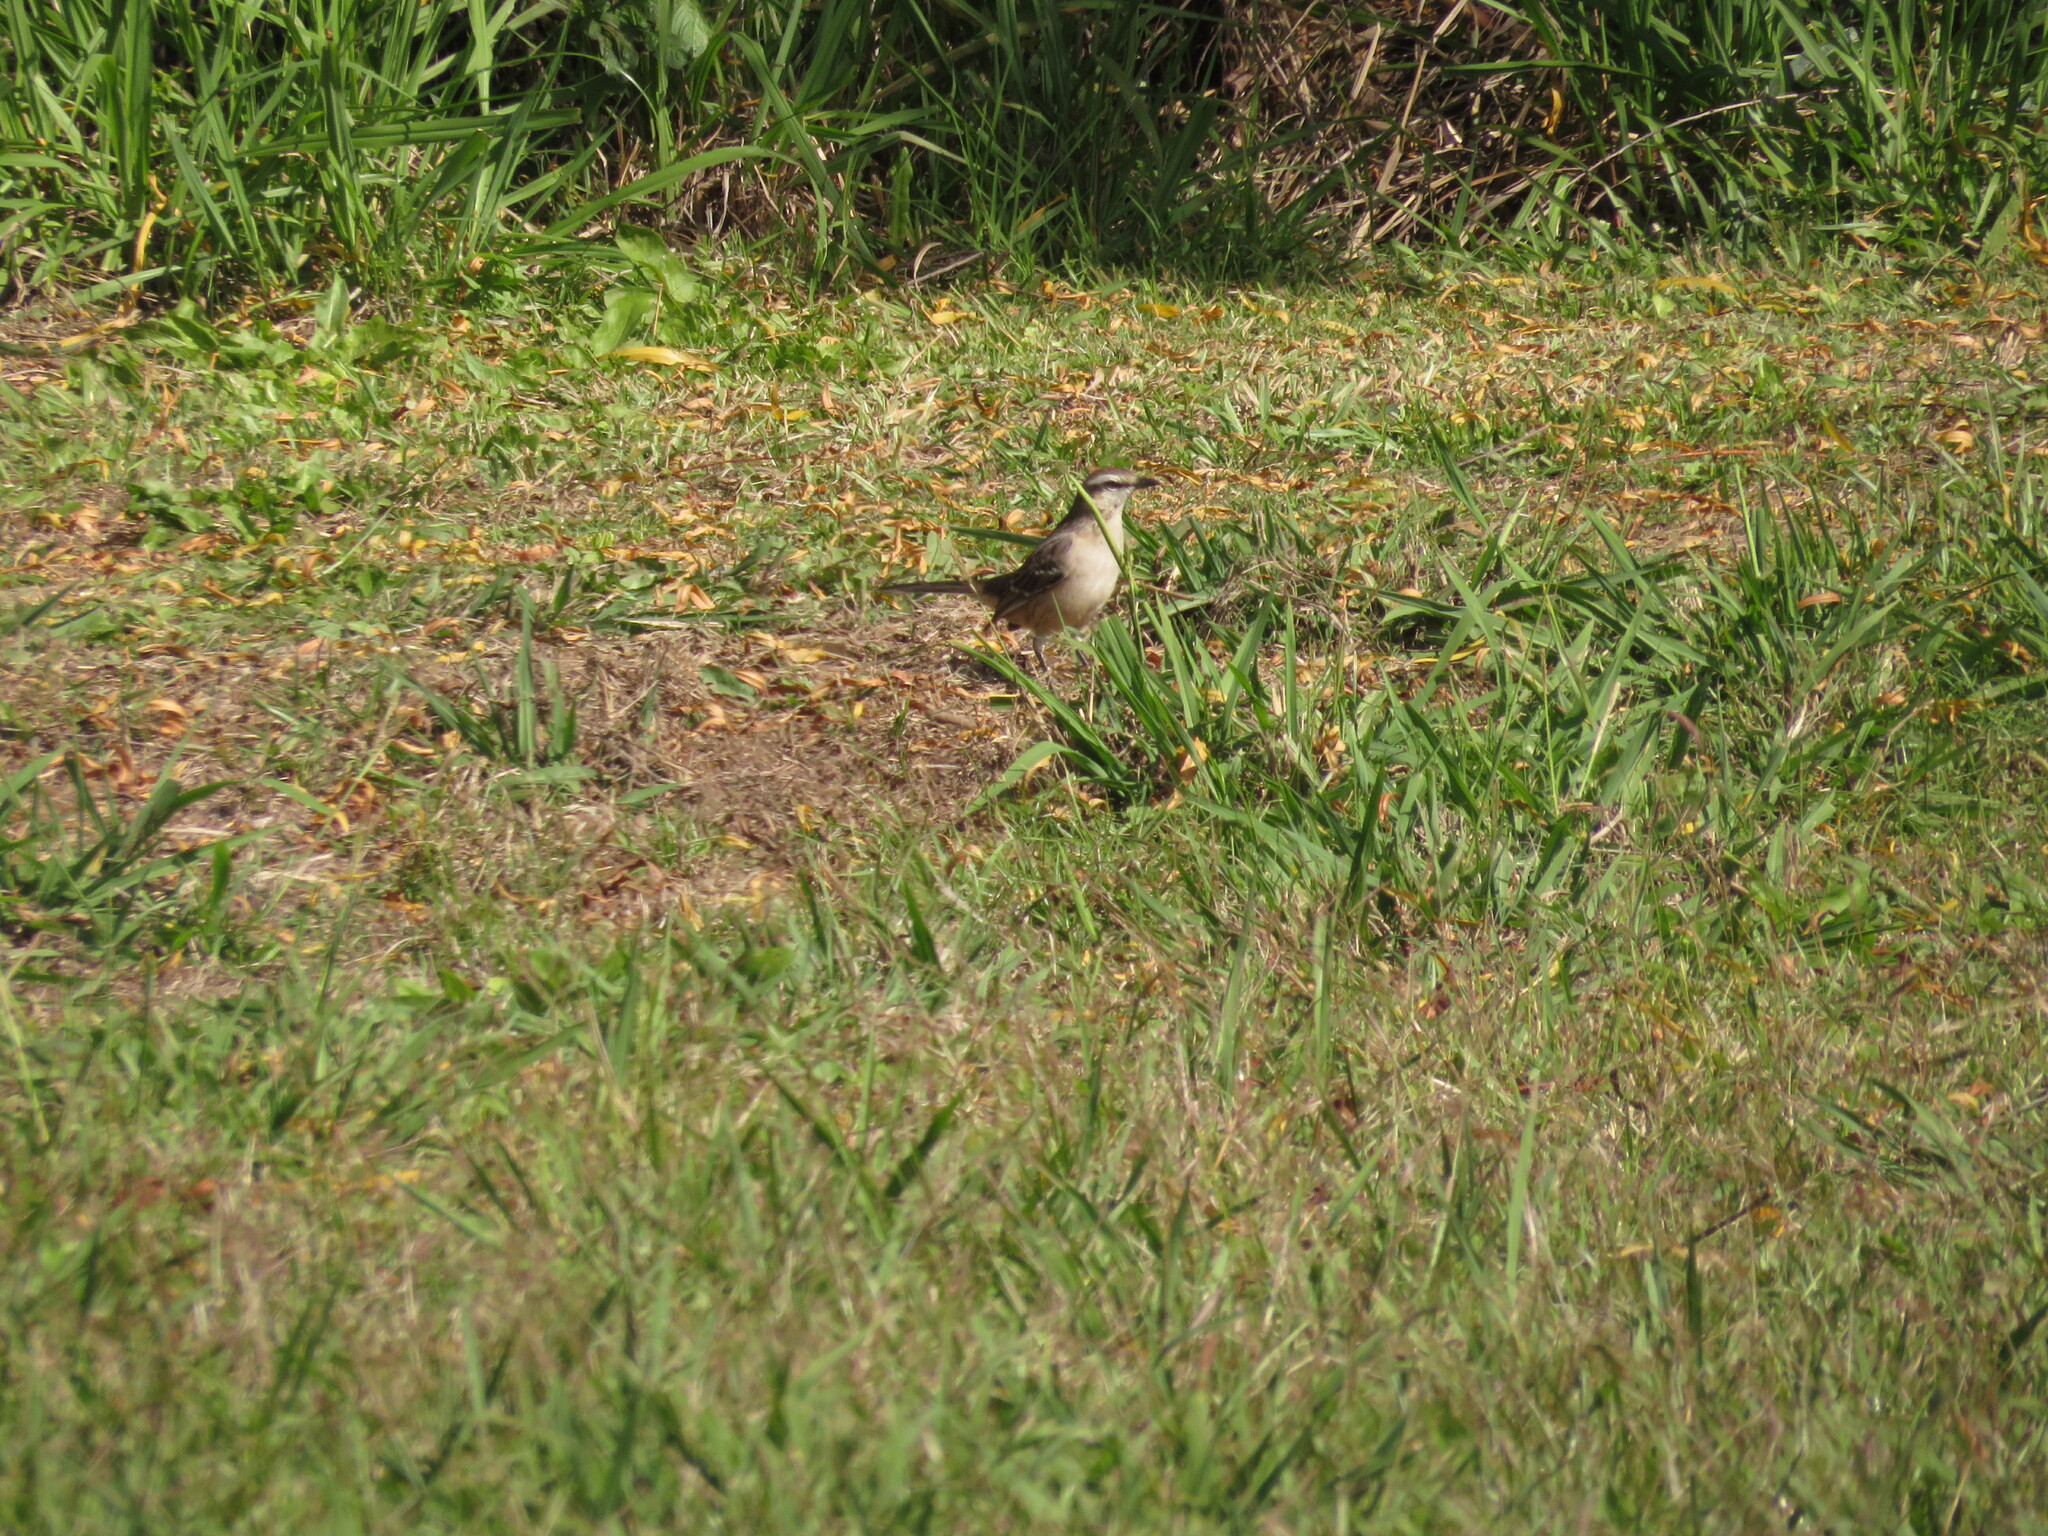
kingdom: Animalia
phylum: Chordata
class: Aves
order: Passeriformes
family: Mimidae
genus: Mimus
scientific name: Mimus saturninus
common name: Chalk-browed mockingbird
